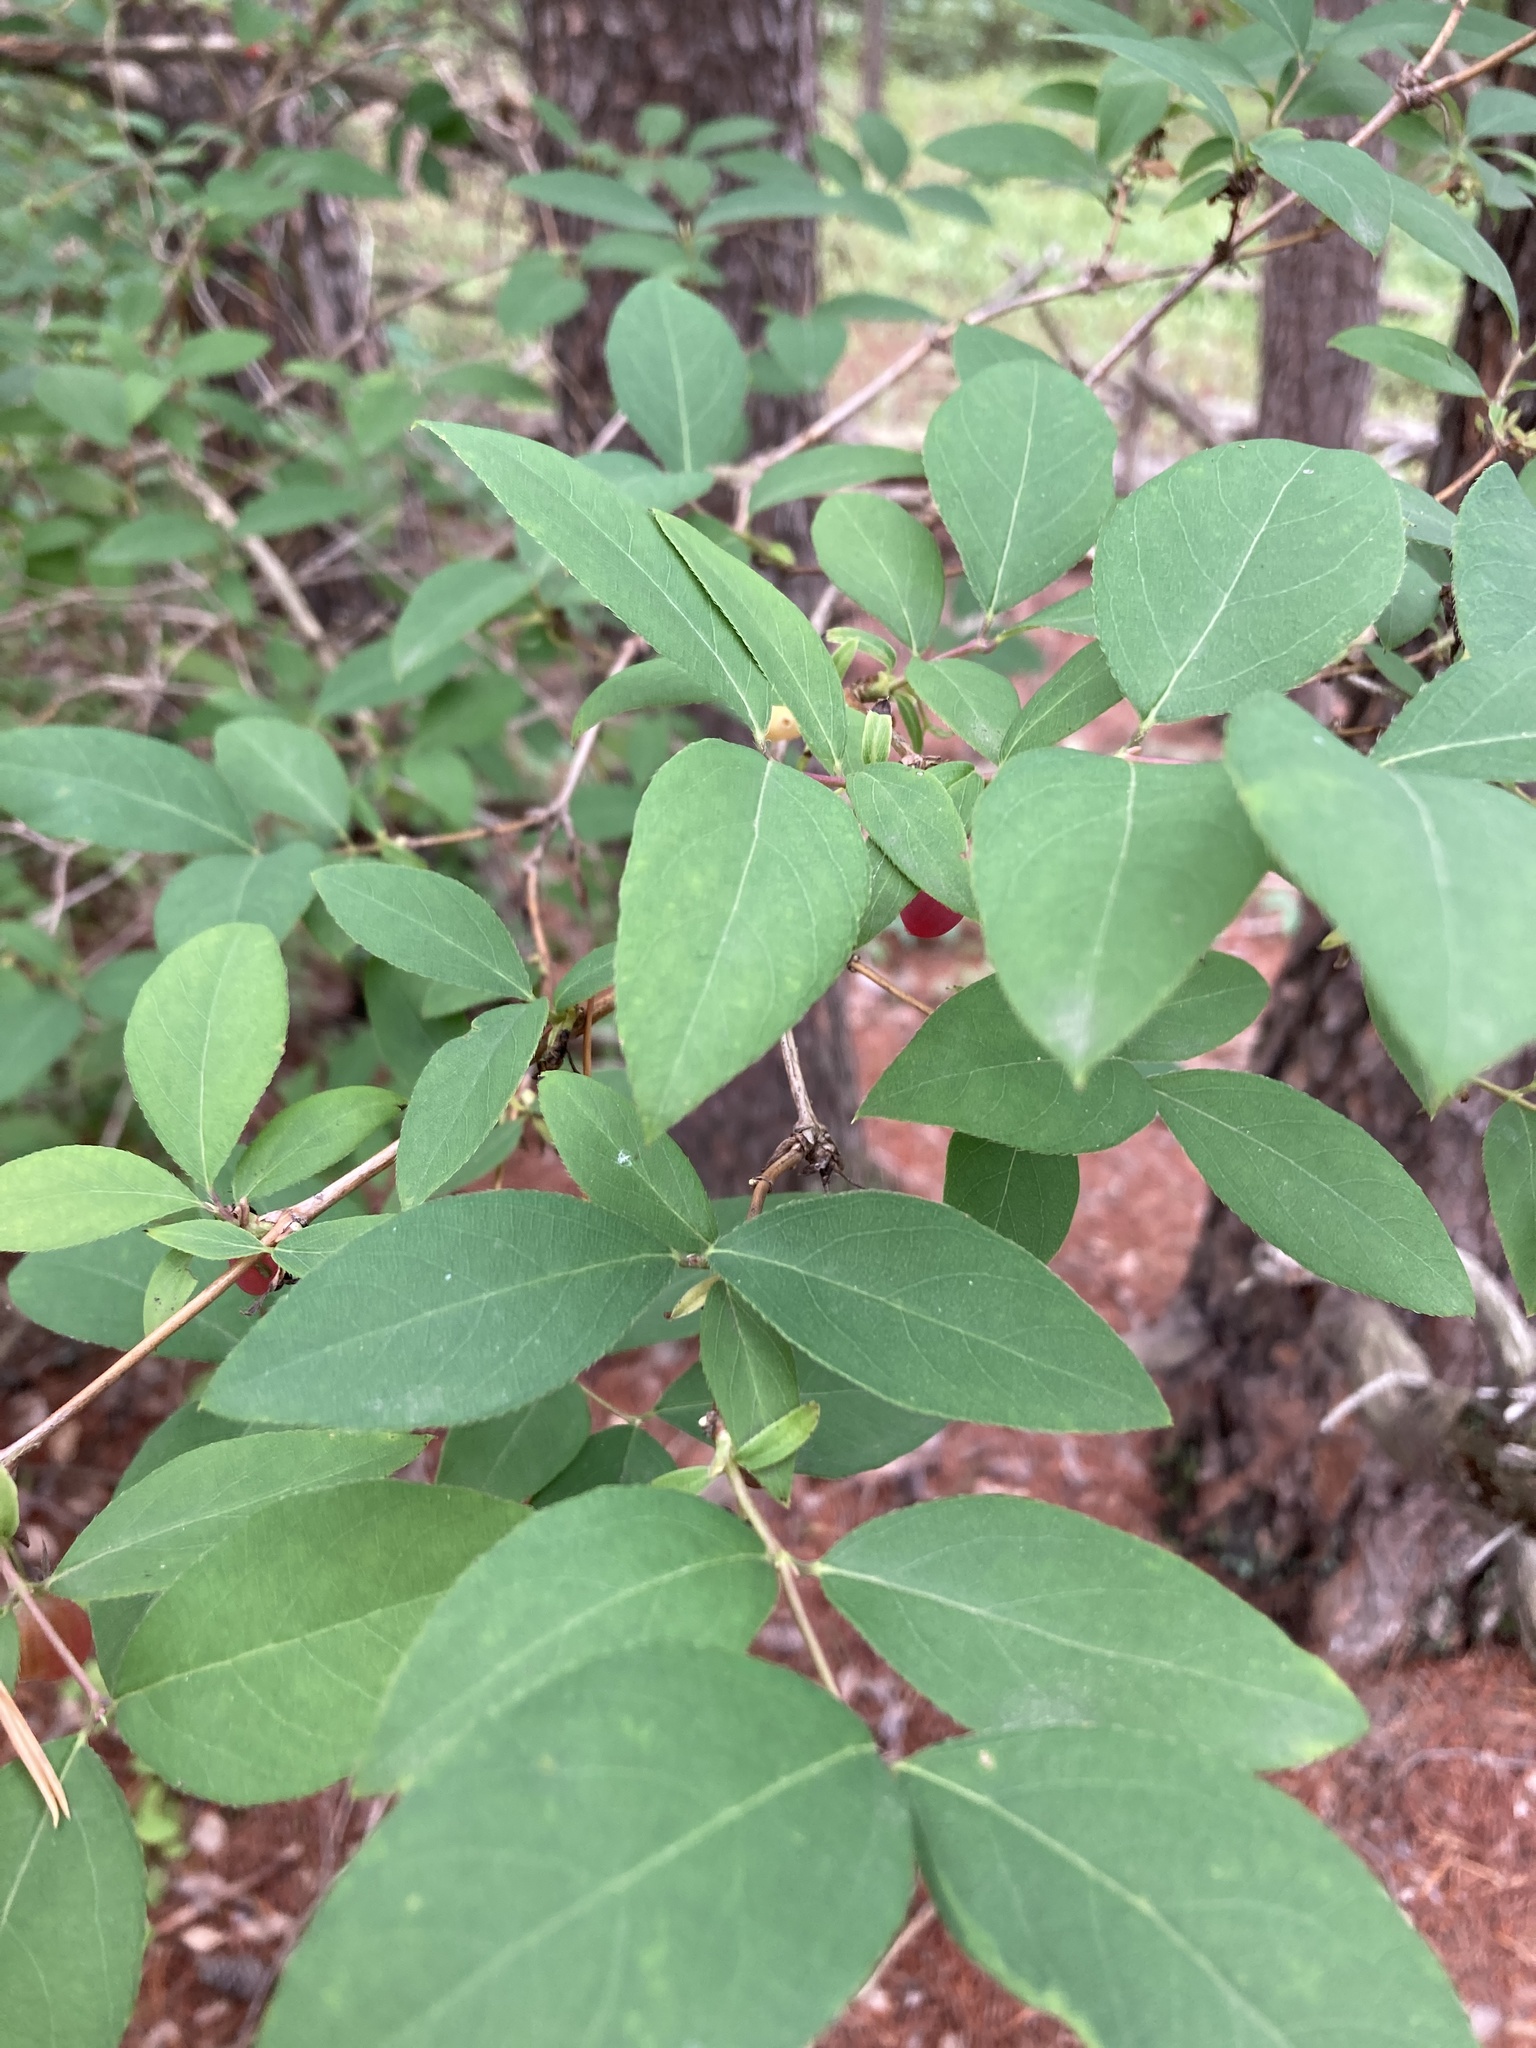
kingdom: Plantae
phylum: Tracheophyta
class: Magnoliopsida
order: Dipsacales
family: Caprifoliaceae
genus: Lonicera
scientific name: Lonicera fragrantissima
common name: Fragrant honeysuckle
